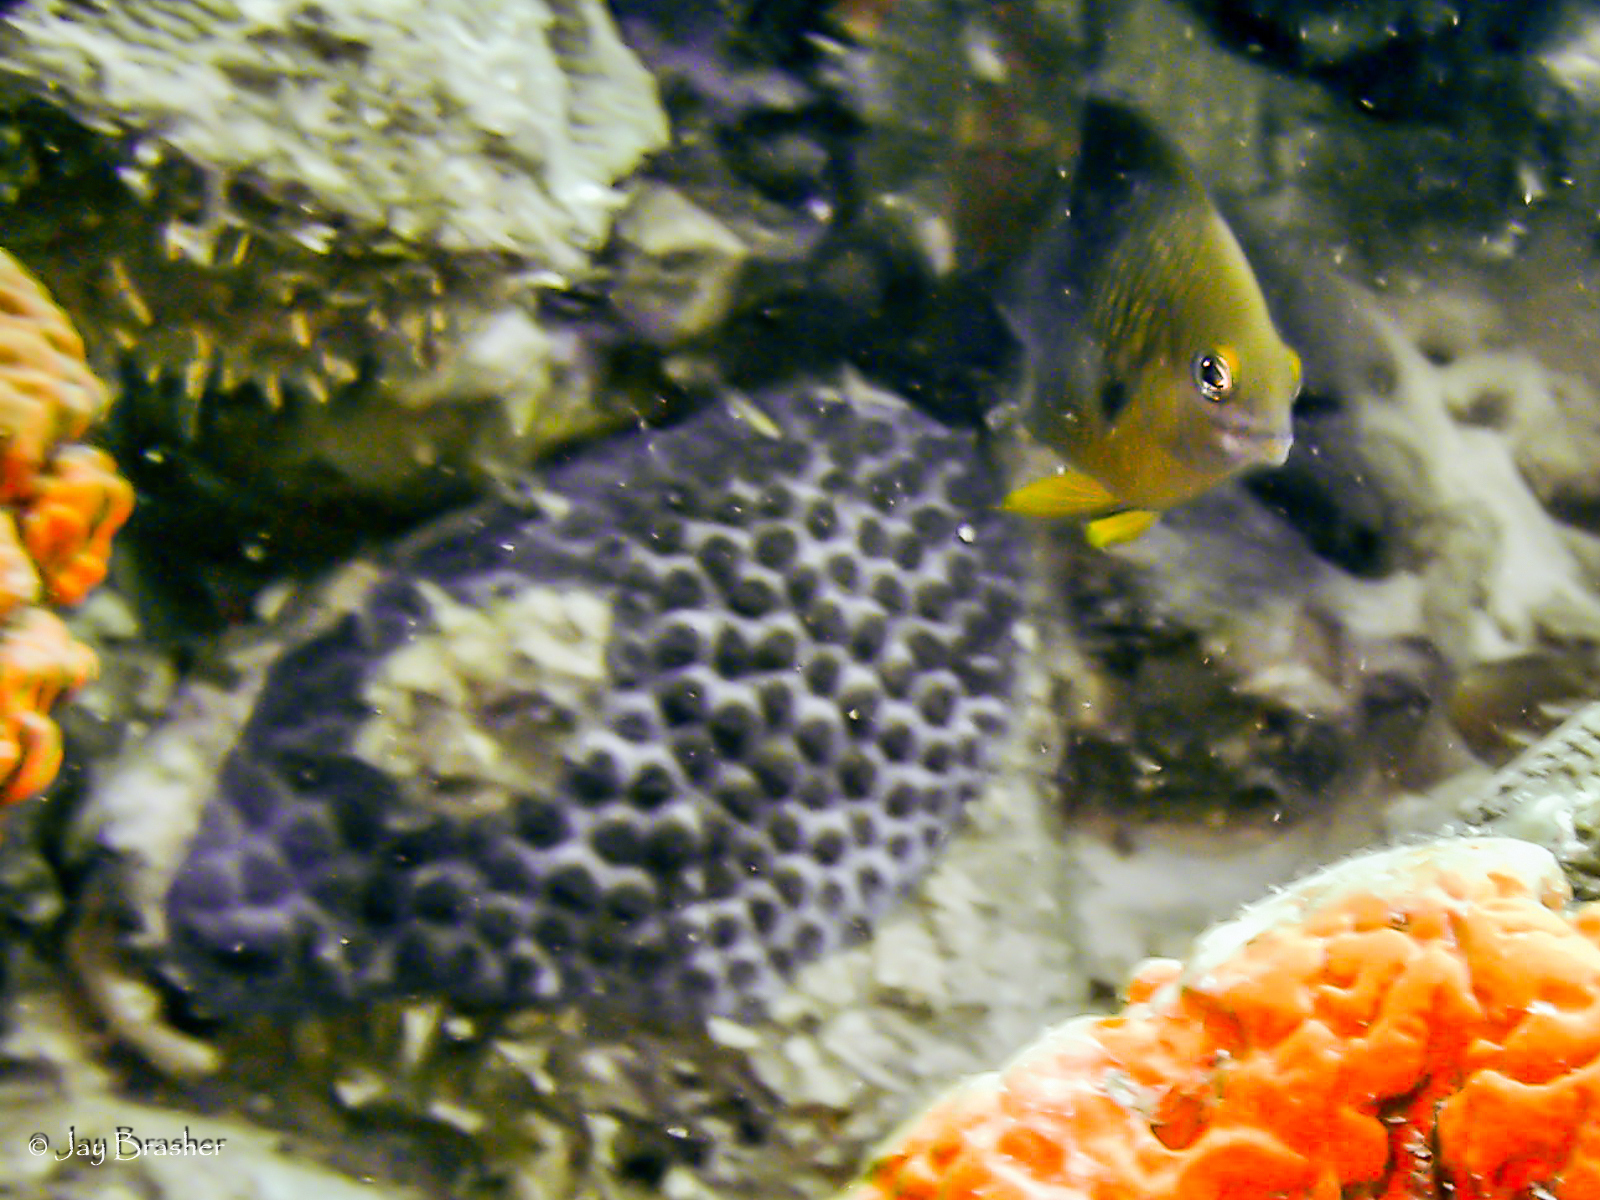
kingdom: Animalia
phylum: Chordata
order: Perciformes
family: Pomacentridae
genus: Stegastes
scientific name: Stegastes planifrons
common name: Threespot damselfish
